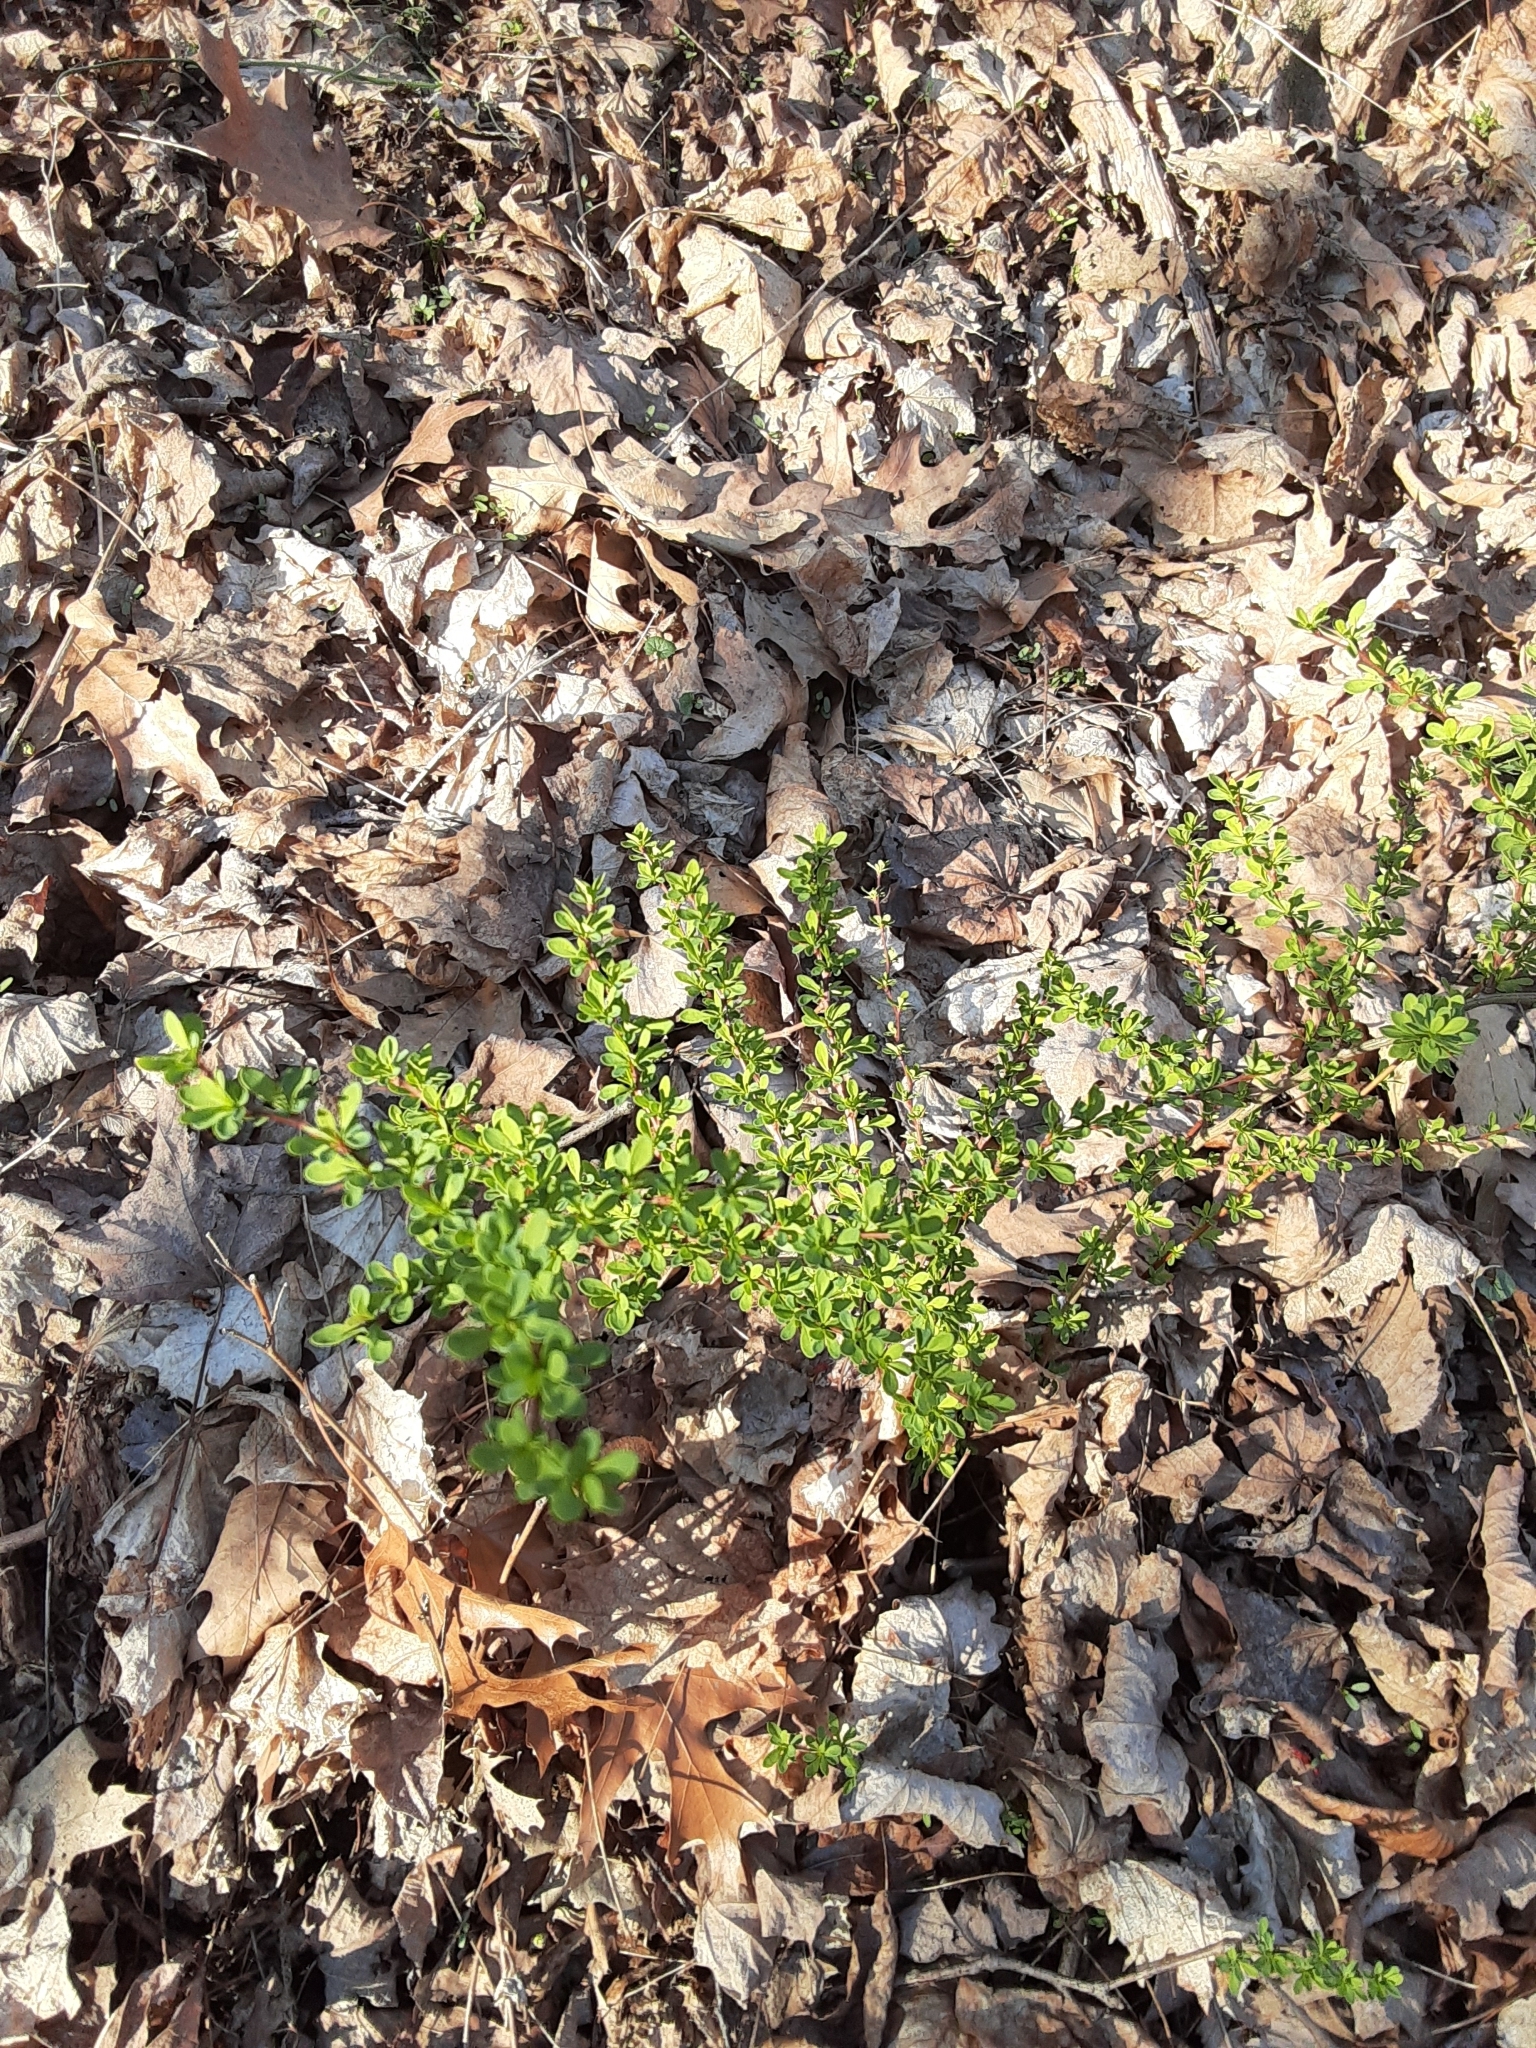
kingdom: Plantae
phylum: Tracheophyta
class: Magnoliopsida
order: Ranunculales
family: Berberidaceae
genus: Berberis
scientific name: Berberis thunbergii
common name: Japanese barberry
